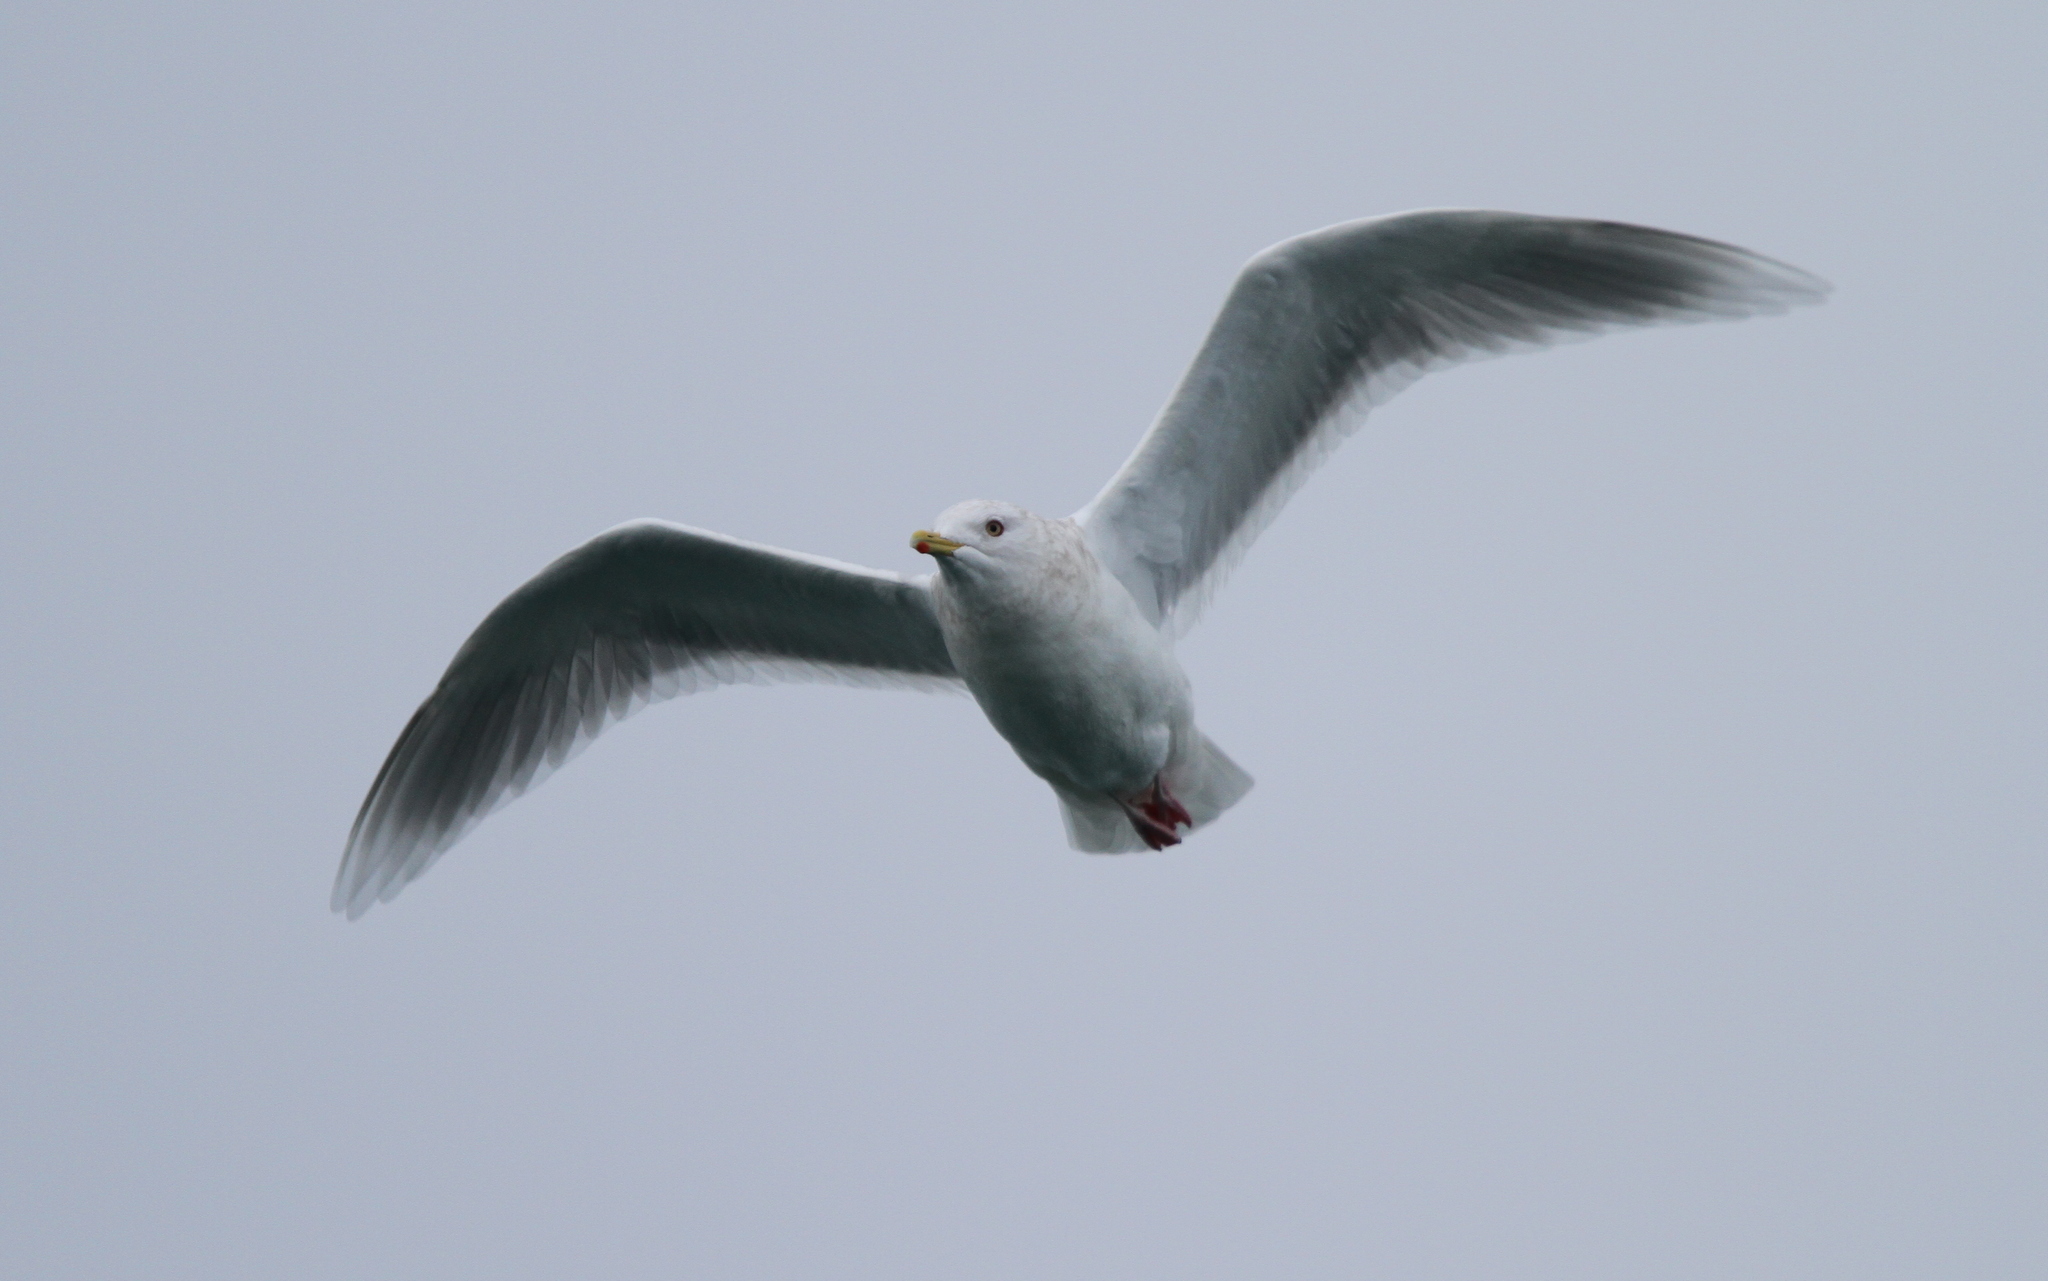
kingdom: Animalia
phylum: Chordata
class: Aves
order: Charadriiformes
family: Laridae
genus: Larus
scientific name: Larus glaucoides
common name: Iceland gull
